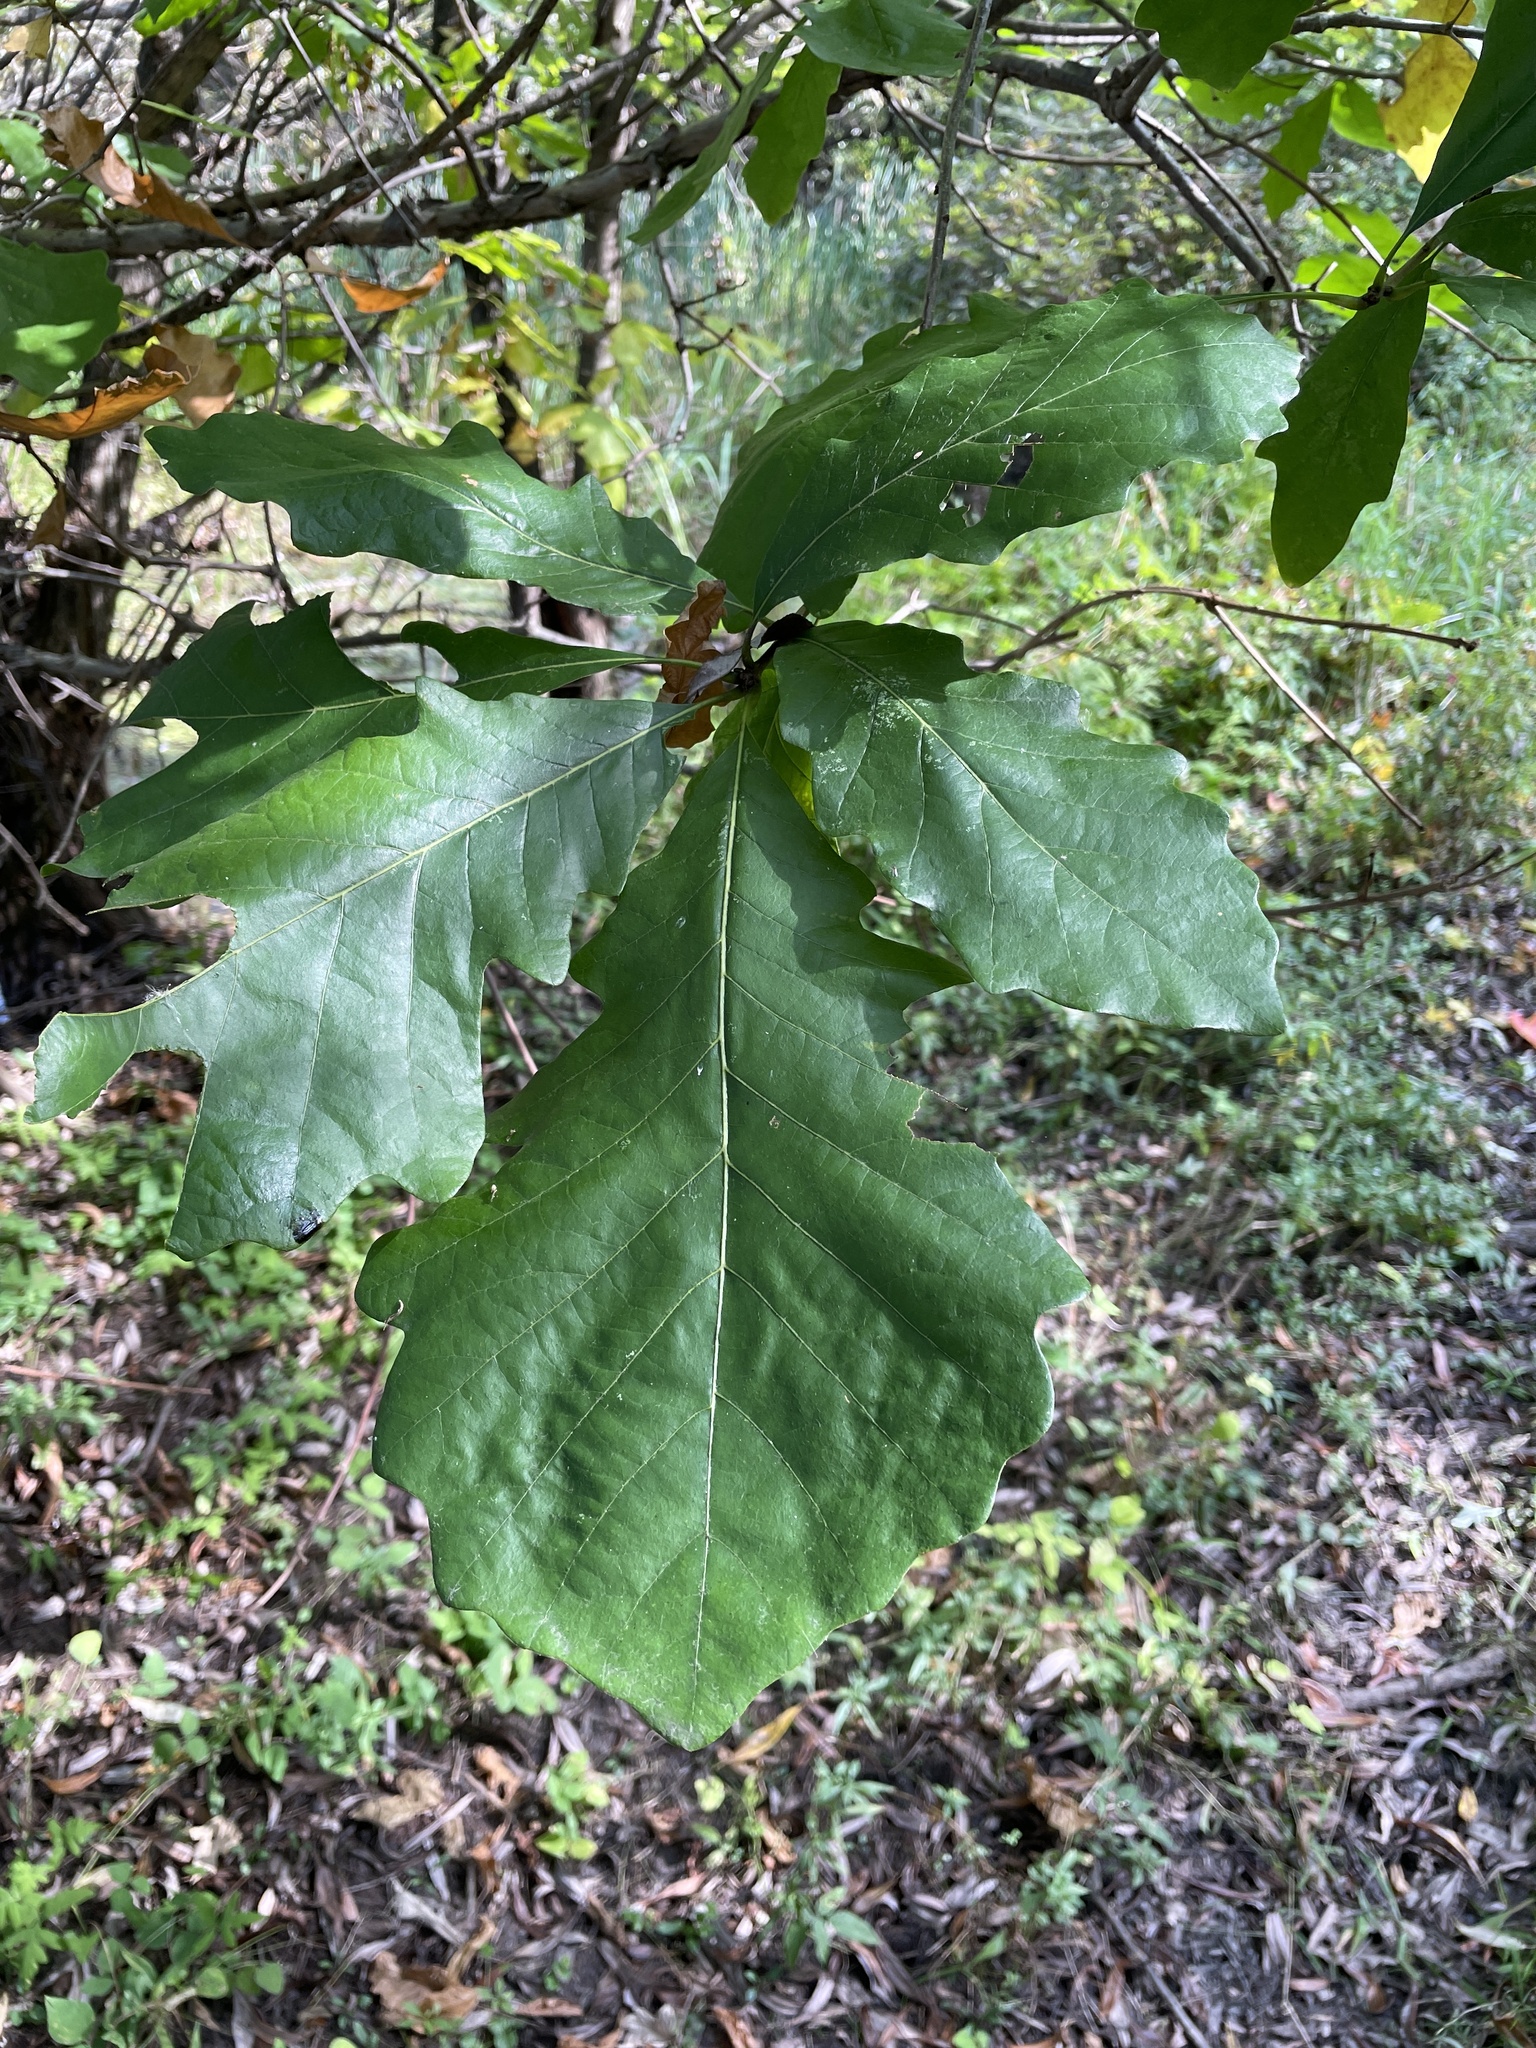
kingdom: Plantae
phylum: Tracheophyta
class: Magnoliopsida
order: Fagales
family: Fagaceae
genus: Quercus
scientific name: Quercus bicolor
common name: Swamp white oak
